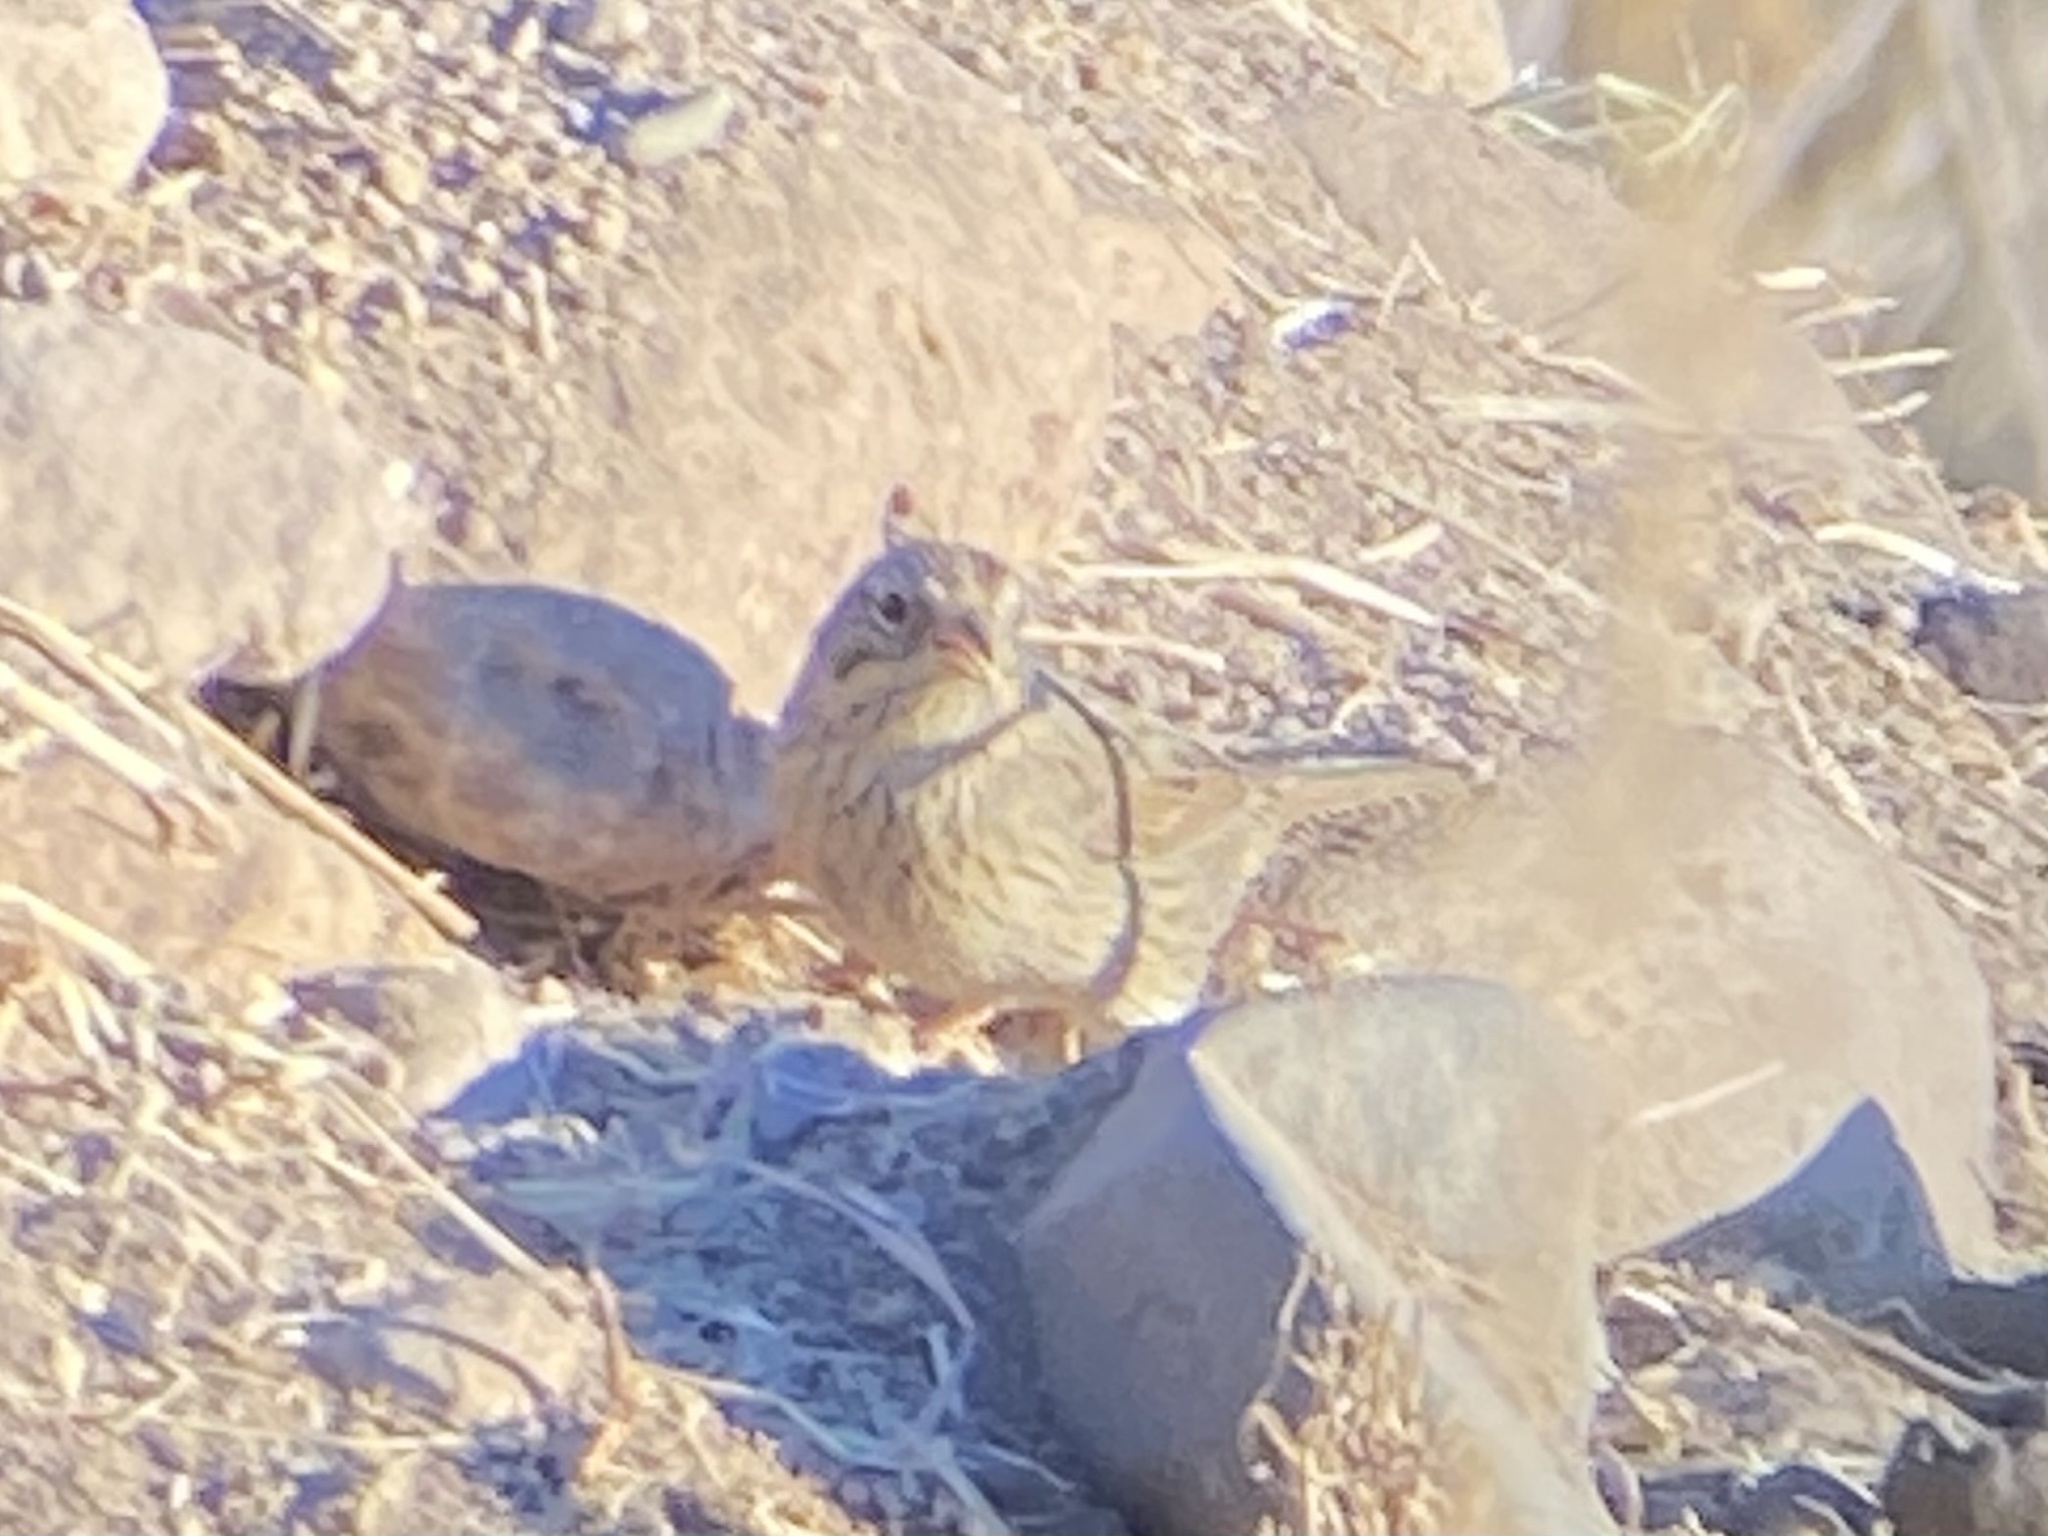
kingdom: Animalia
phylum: Chordata
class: Aves
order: Passeriformes
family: Passerellidae
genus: Melospiza
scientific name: Melospiza lincolnii
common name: Lincoln's sparrow
